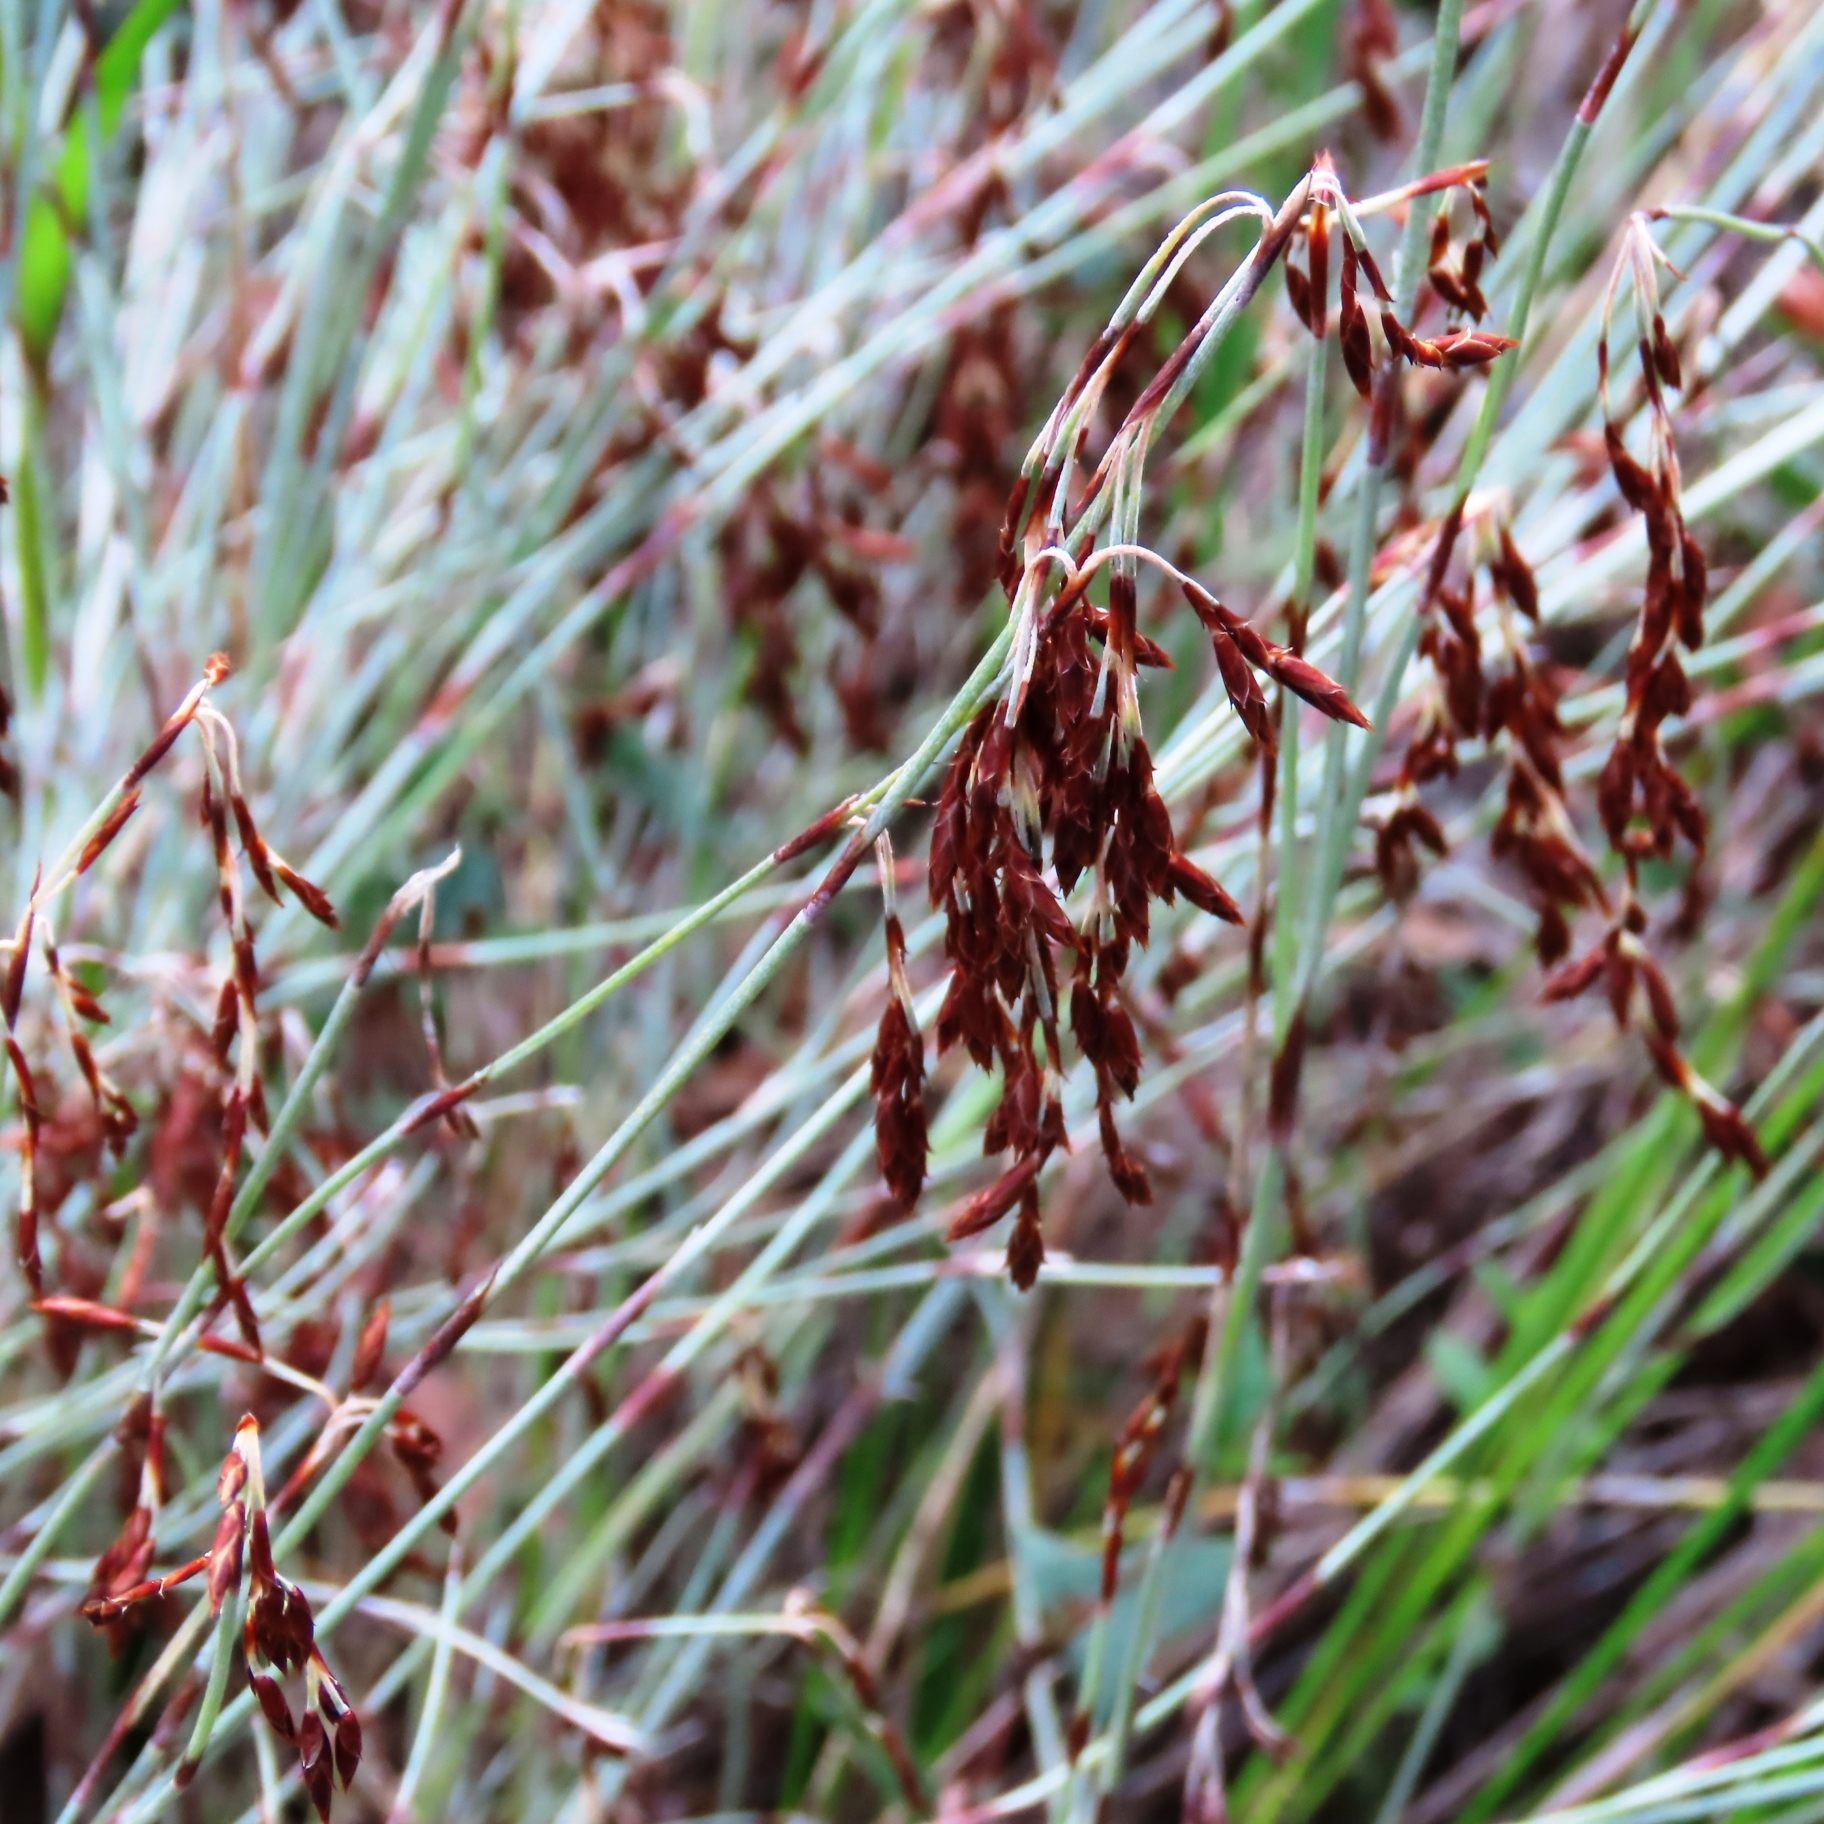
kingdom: Plantae
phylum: Tracheophyta
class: Liliopsida
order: Poales
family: Restionaceae
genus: Hypolaena
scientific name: Hypolaena fastigiata
